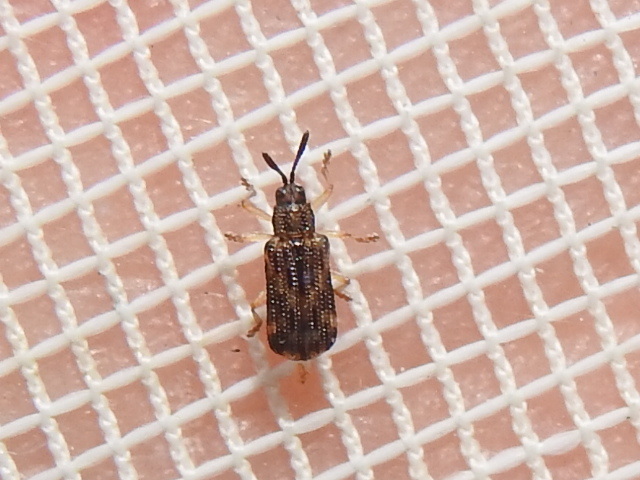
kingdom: Animalia
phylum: Arthropoda
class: Insecta
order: Coleoptera
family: Chrysomelidae
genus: Sumitrosis
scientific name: Sumitrosis inaequalis
